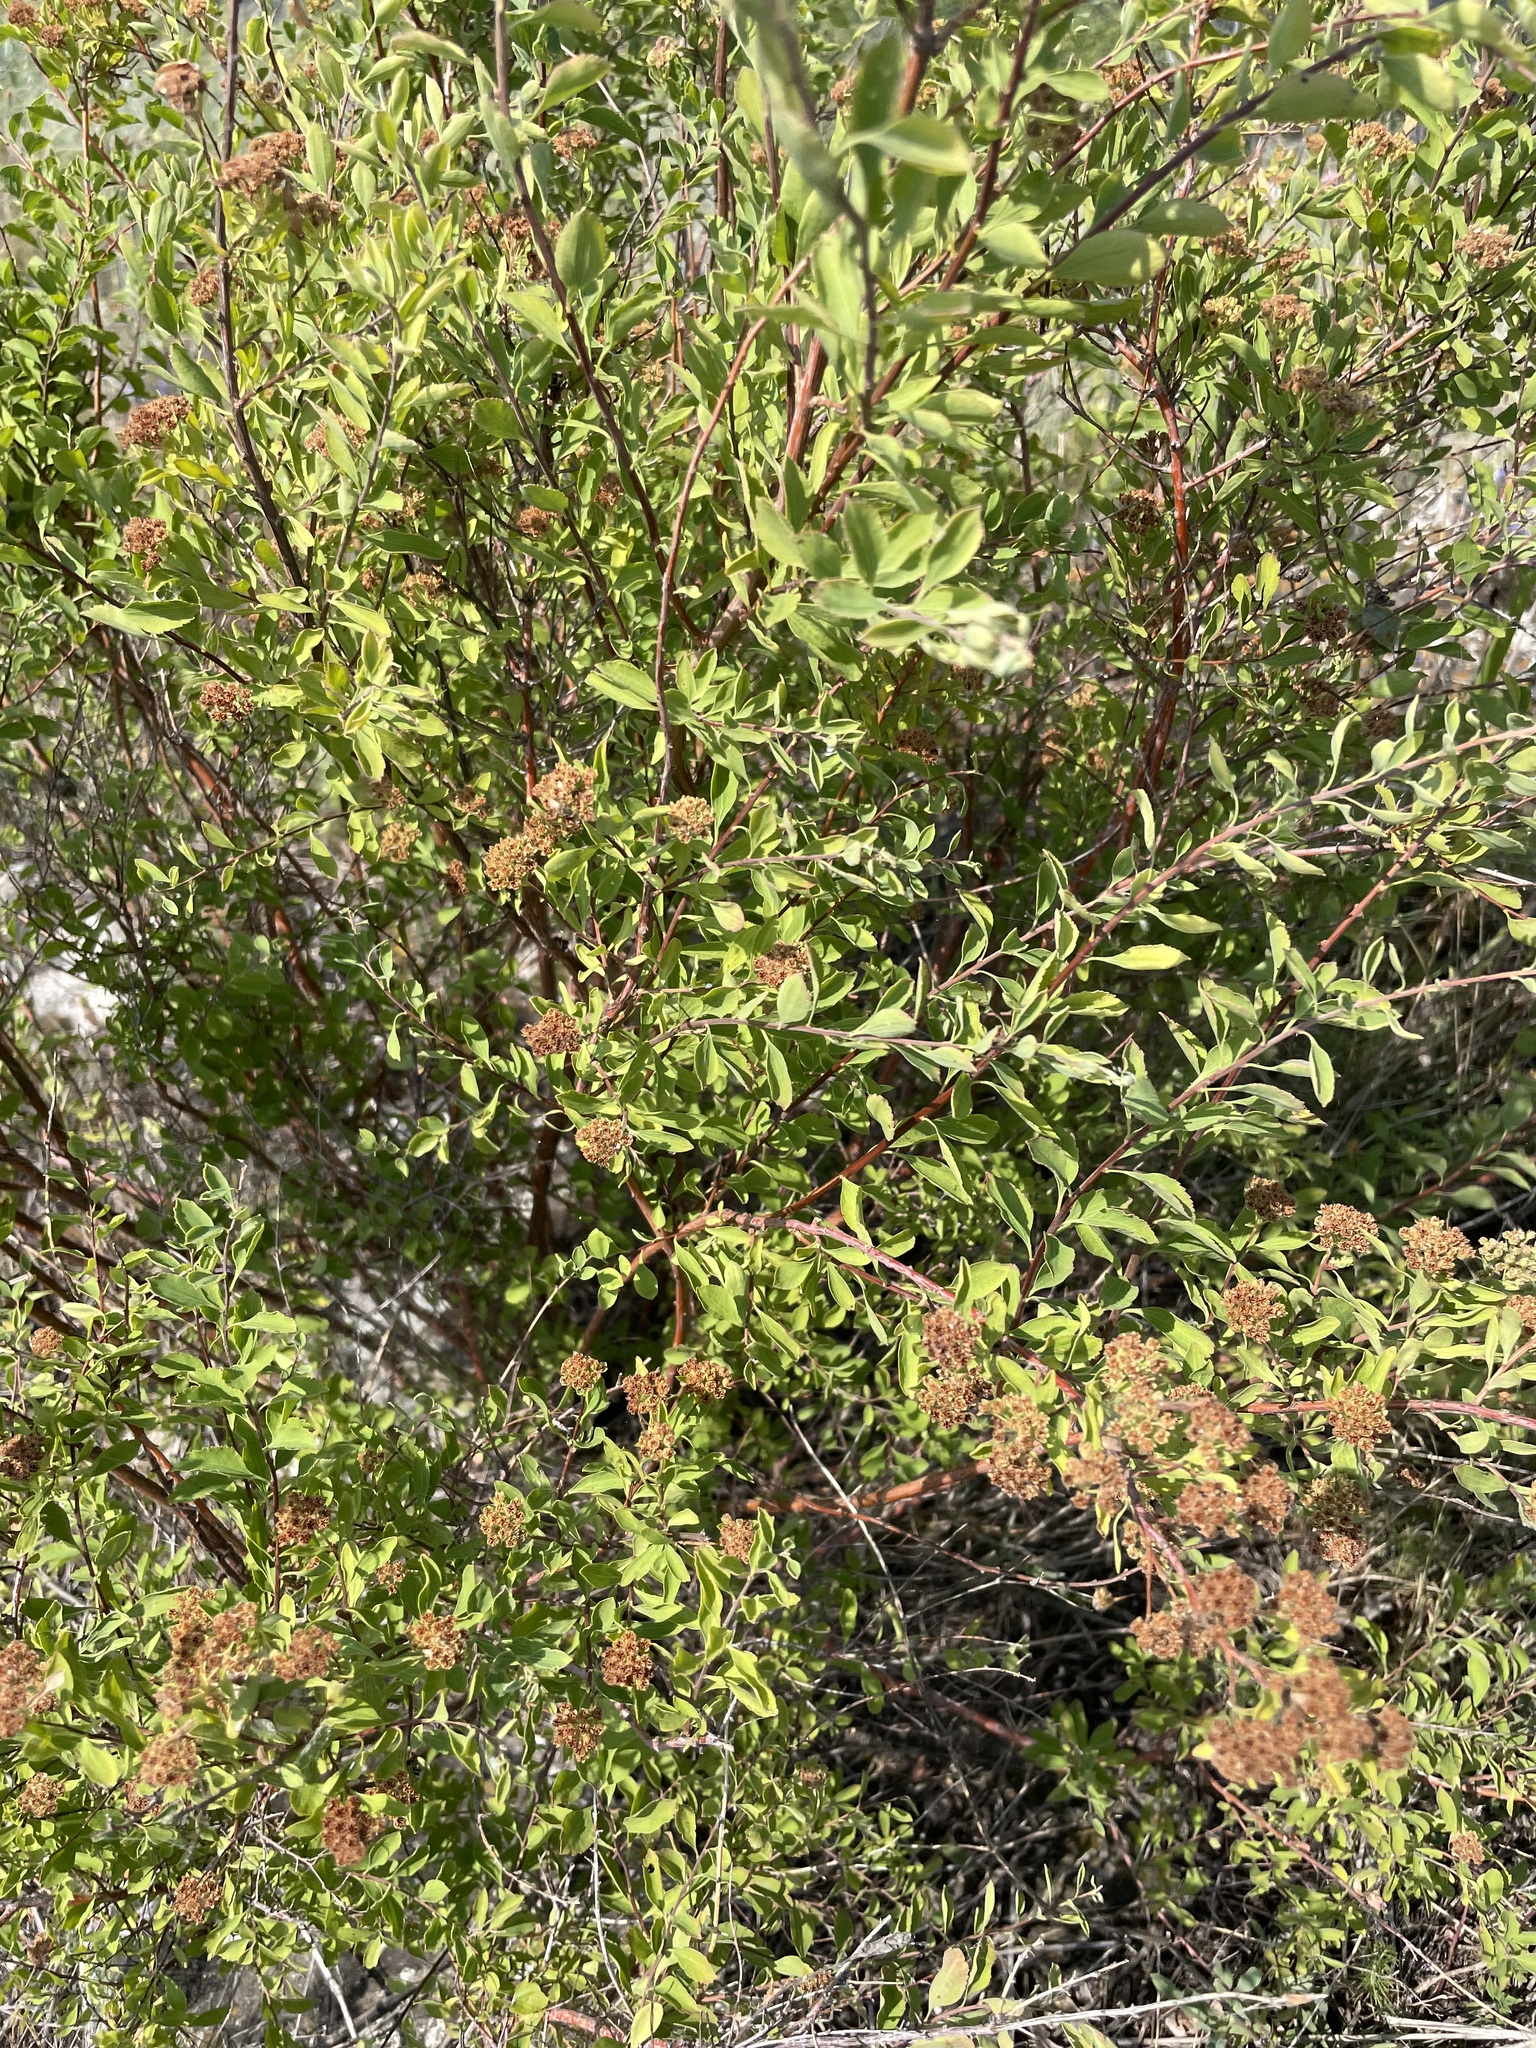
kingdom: Plantae
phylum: Tracheophyta
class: Magnoliopsida
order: Rosales
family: Rosaceae
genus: Spiraea
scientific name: Spiraea crenata
